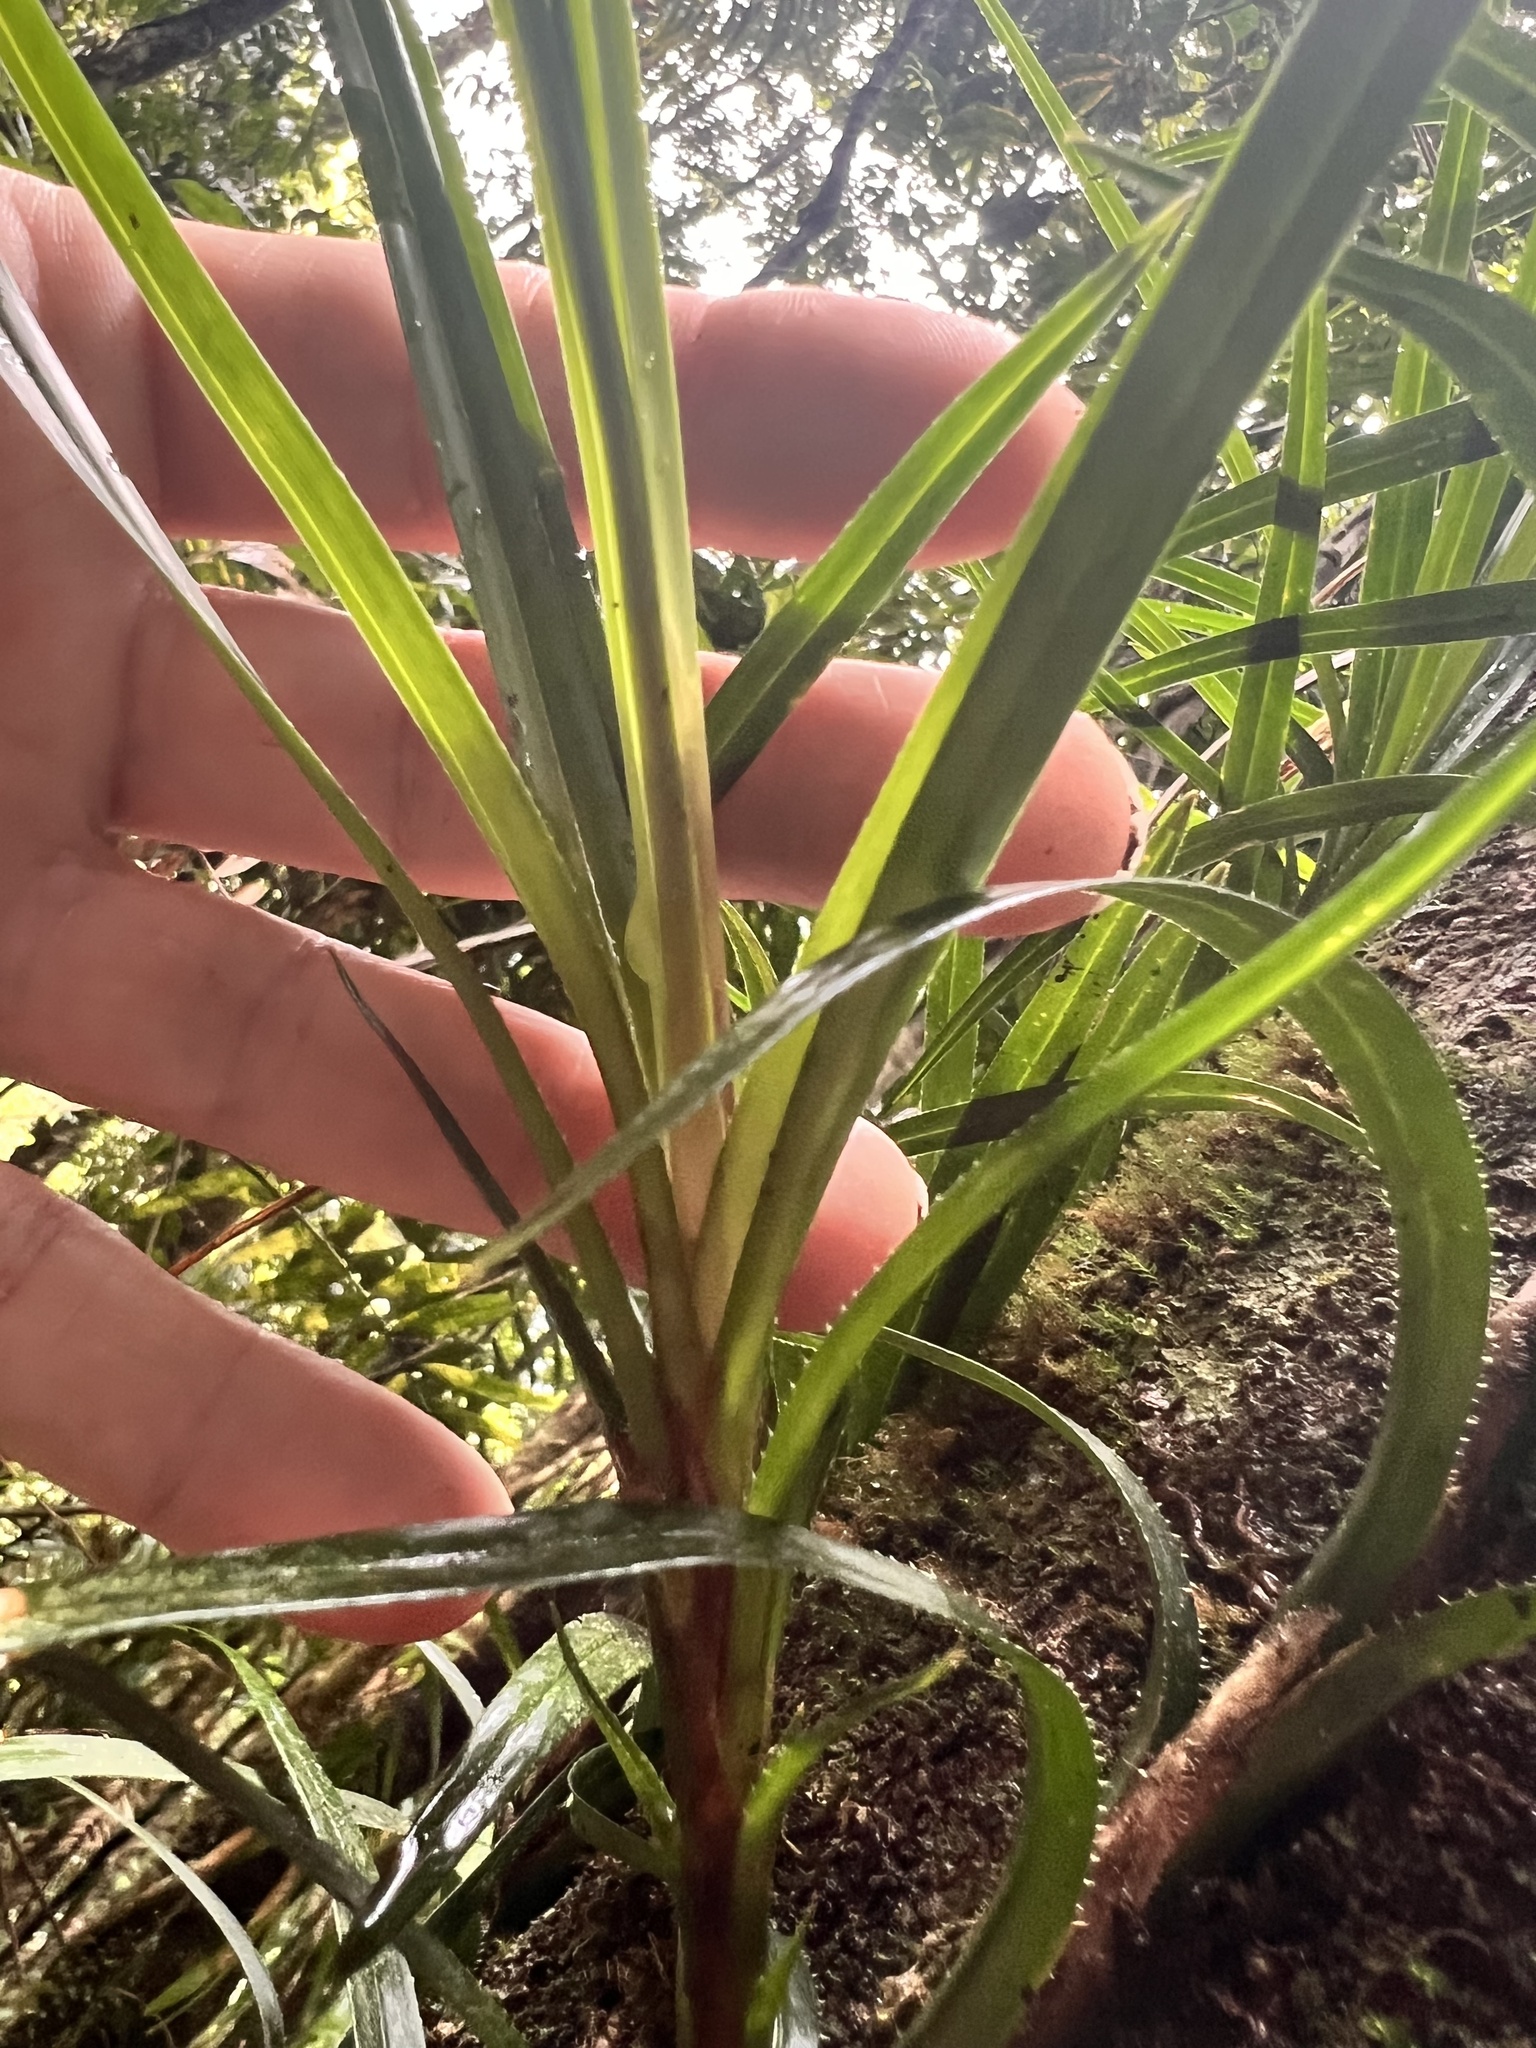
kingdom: Plantae
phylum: Tracheophyta
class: Liliopsida
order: Pandanales
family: Pandanaceae
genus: Freycinetia
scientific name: Freycinetia excelsa
